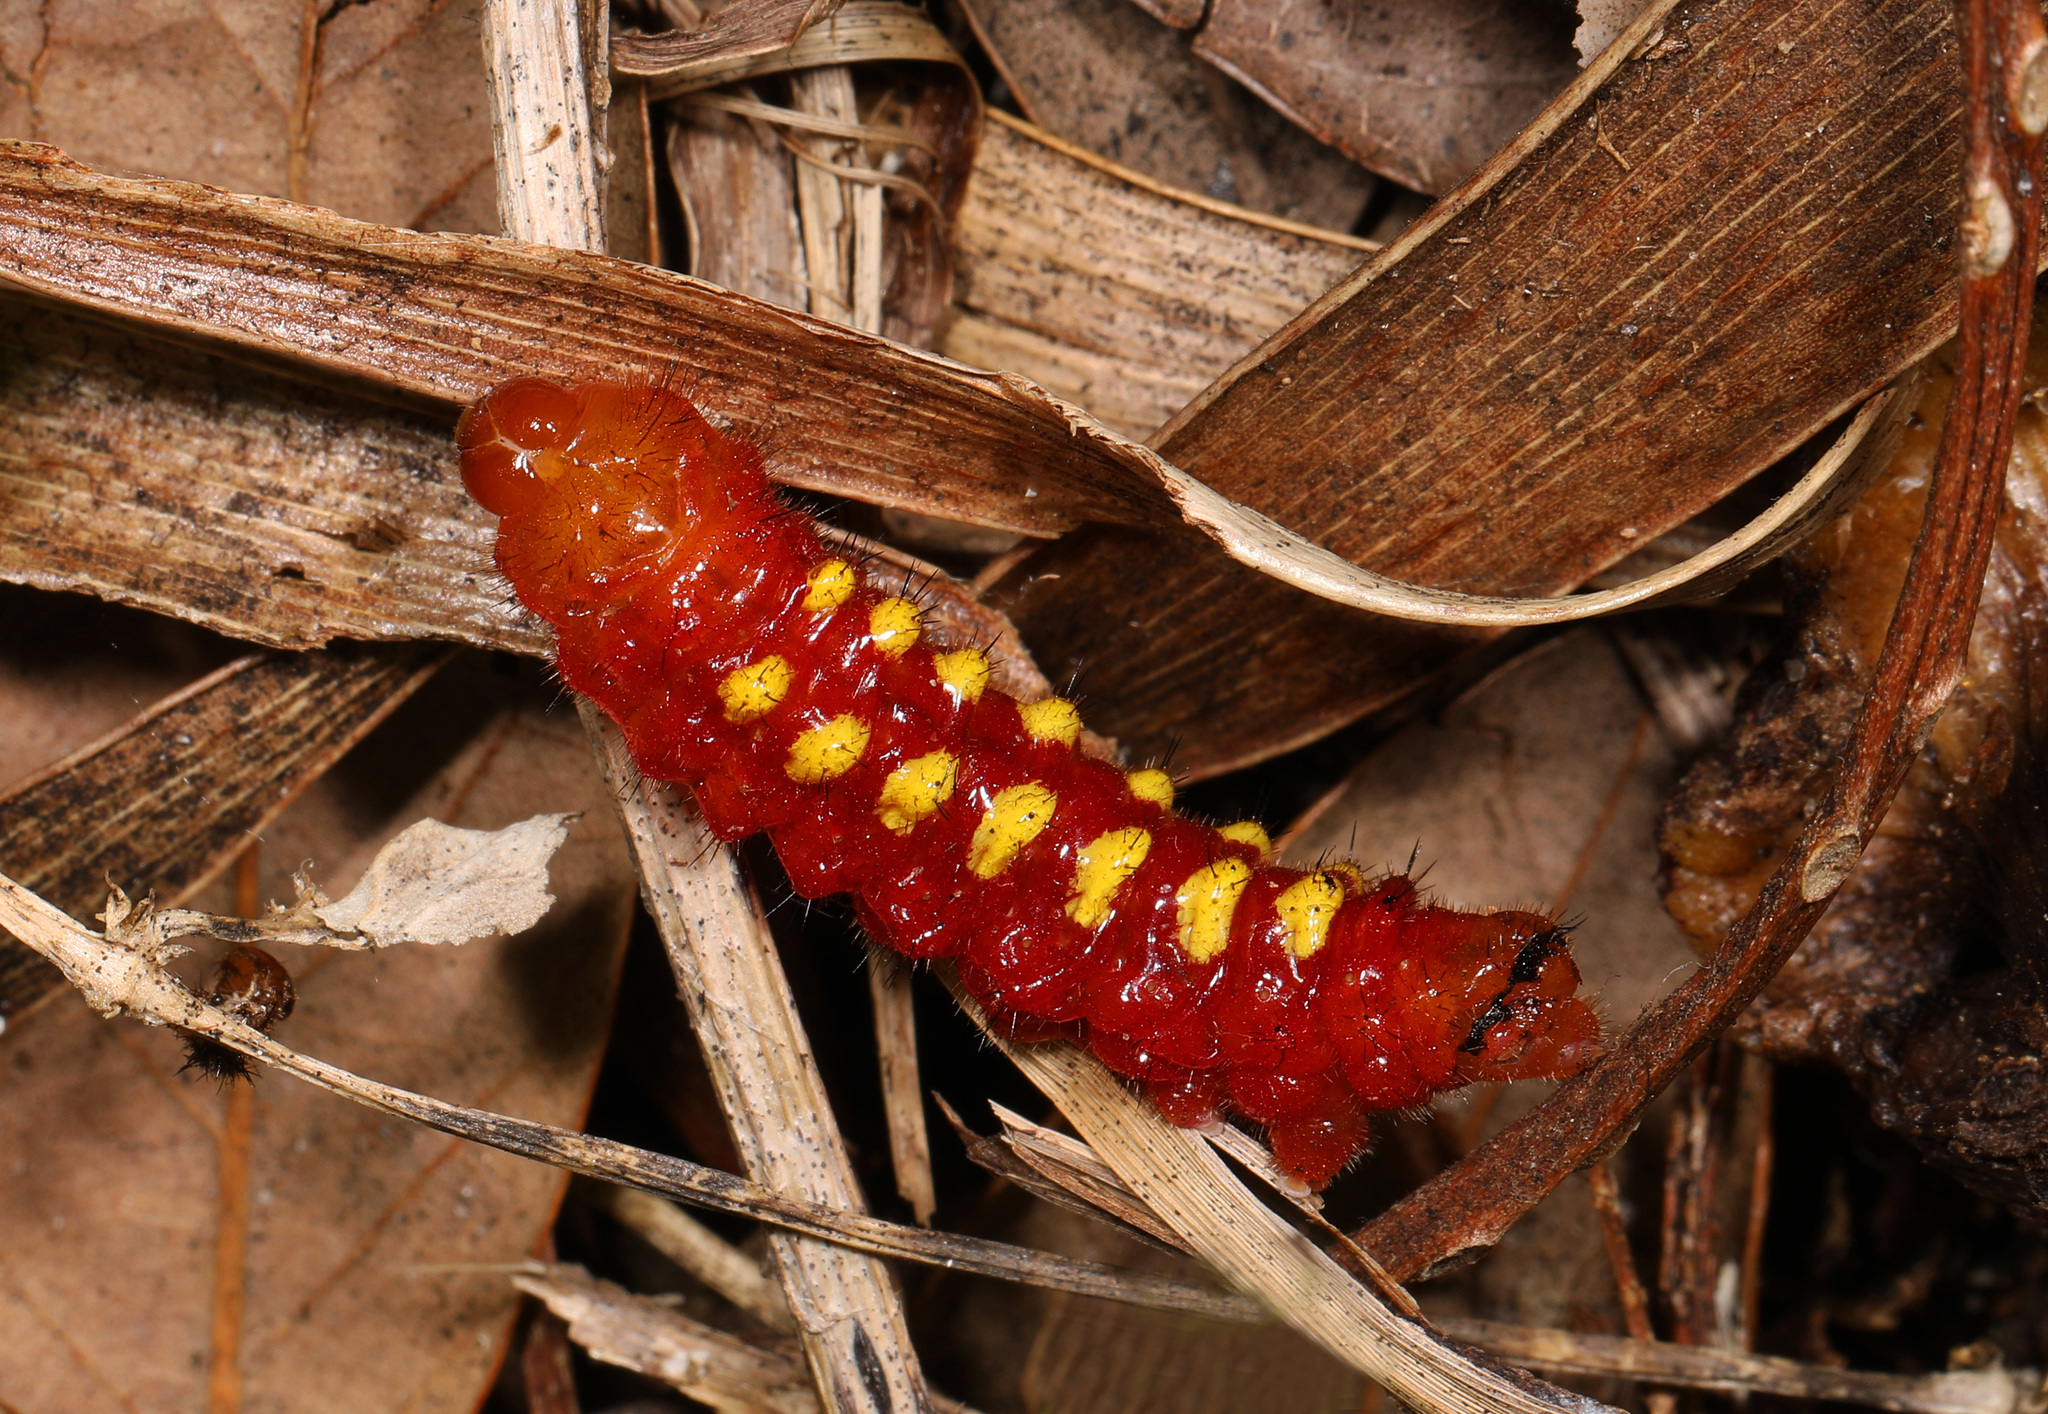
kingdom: Animalia
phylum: Arthropoda
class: Insecta
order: Lepidoptera
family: Lycaenidae
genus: Eumaeus
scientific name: Eumaeus atala
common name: Atala
